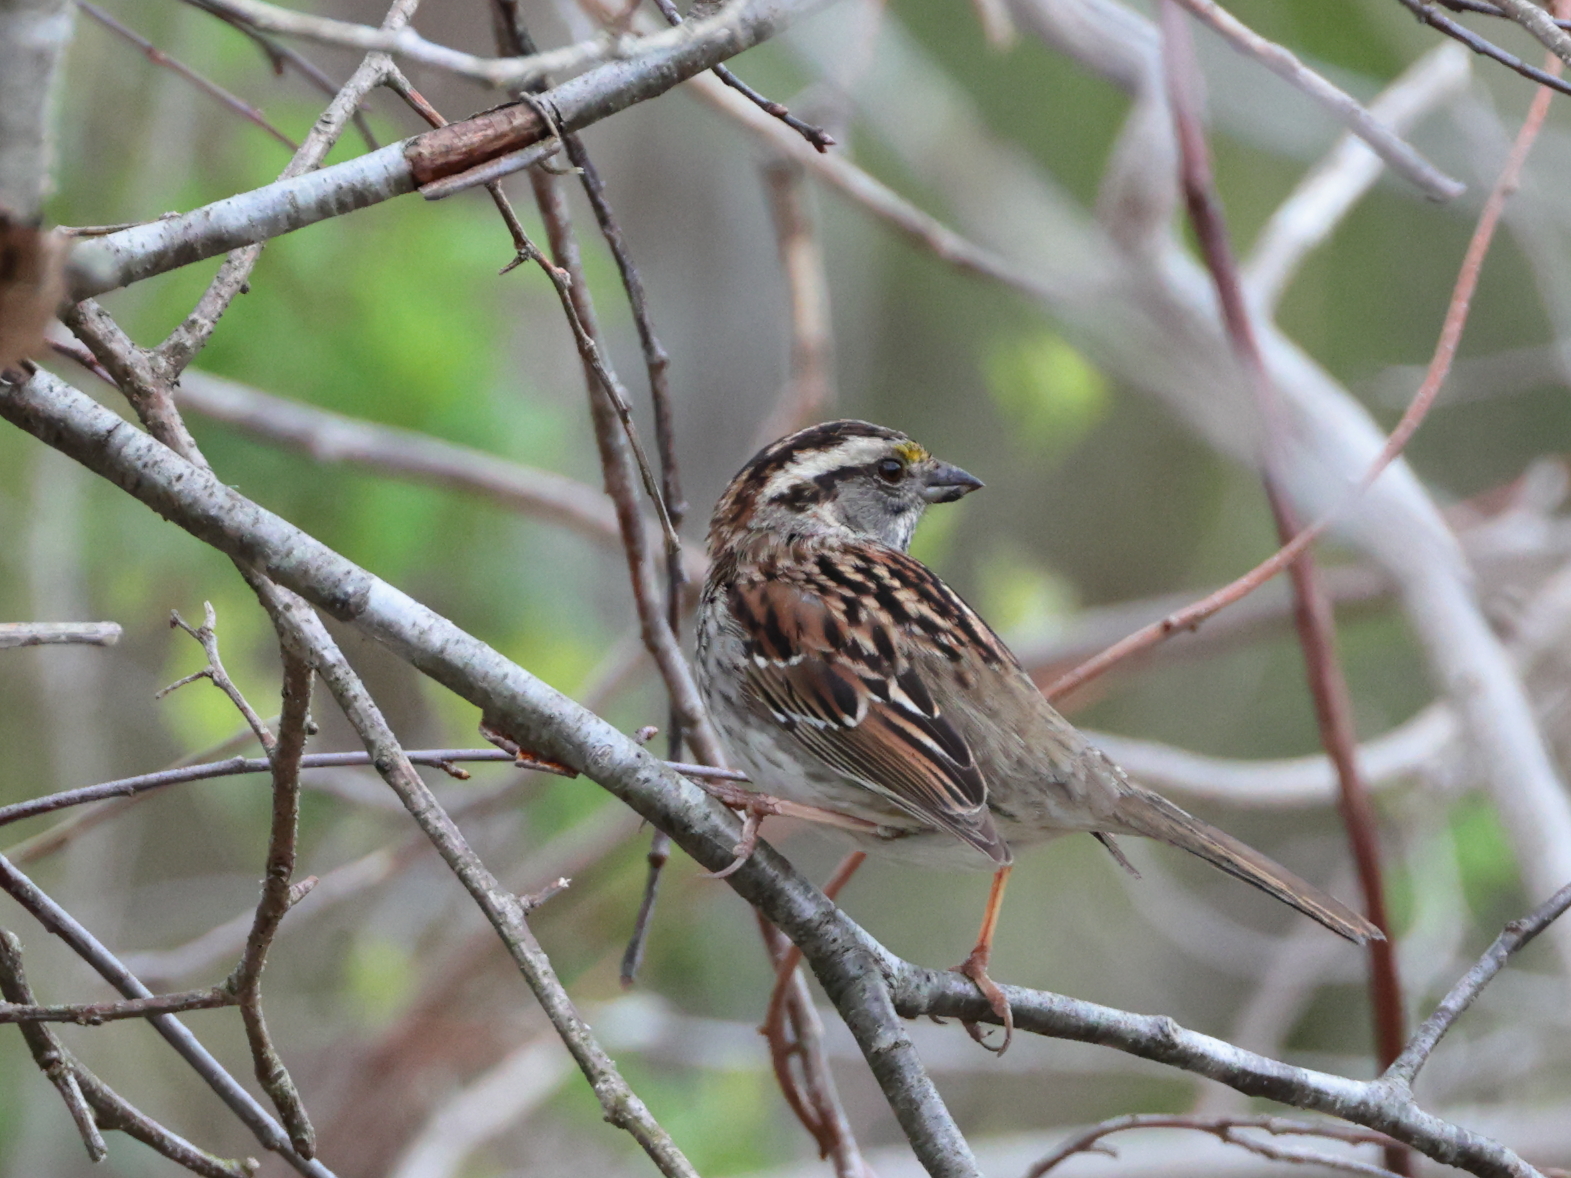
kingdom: Animalia
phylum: Chordata
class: Aves
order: Passeriformes
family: Passerellidae
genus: Zonotrichia
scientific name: Zonotrichia albicollis
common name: White-throated sparrow
